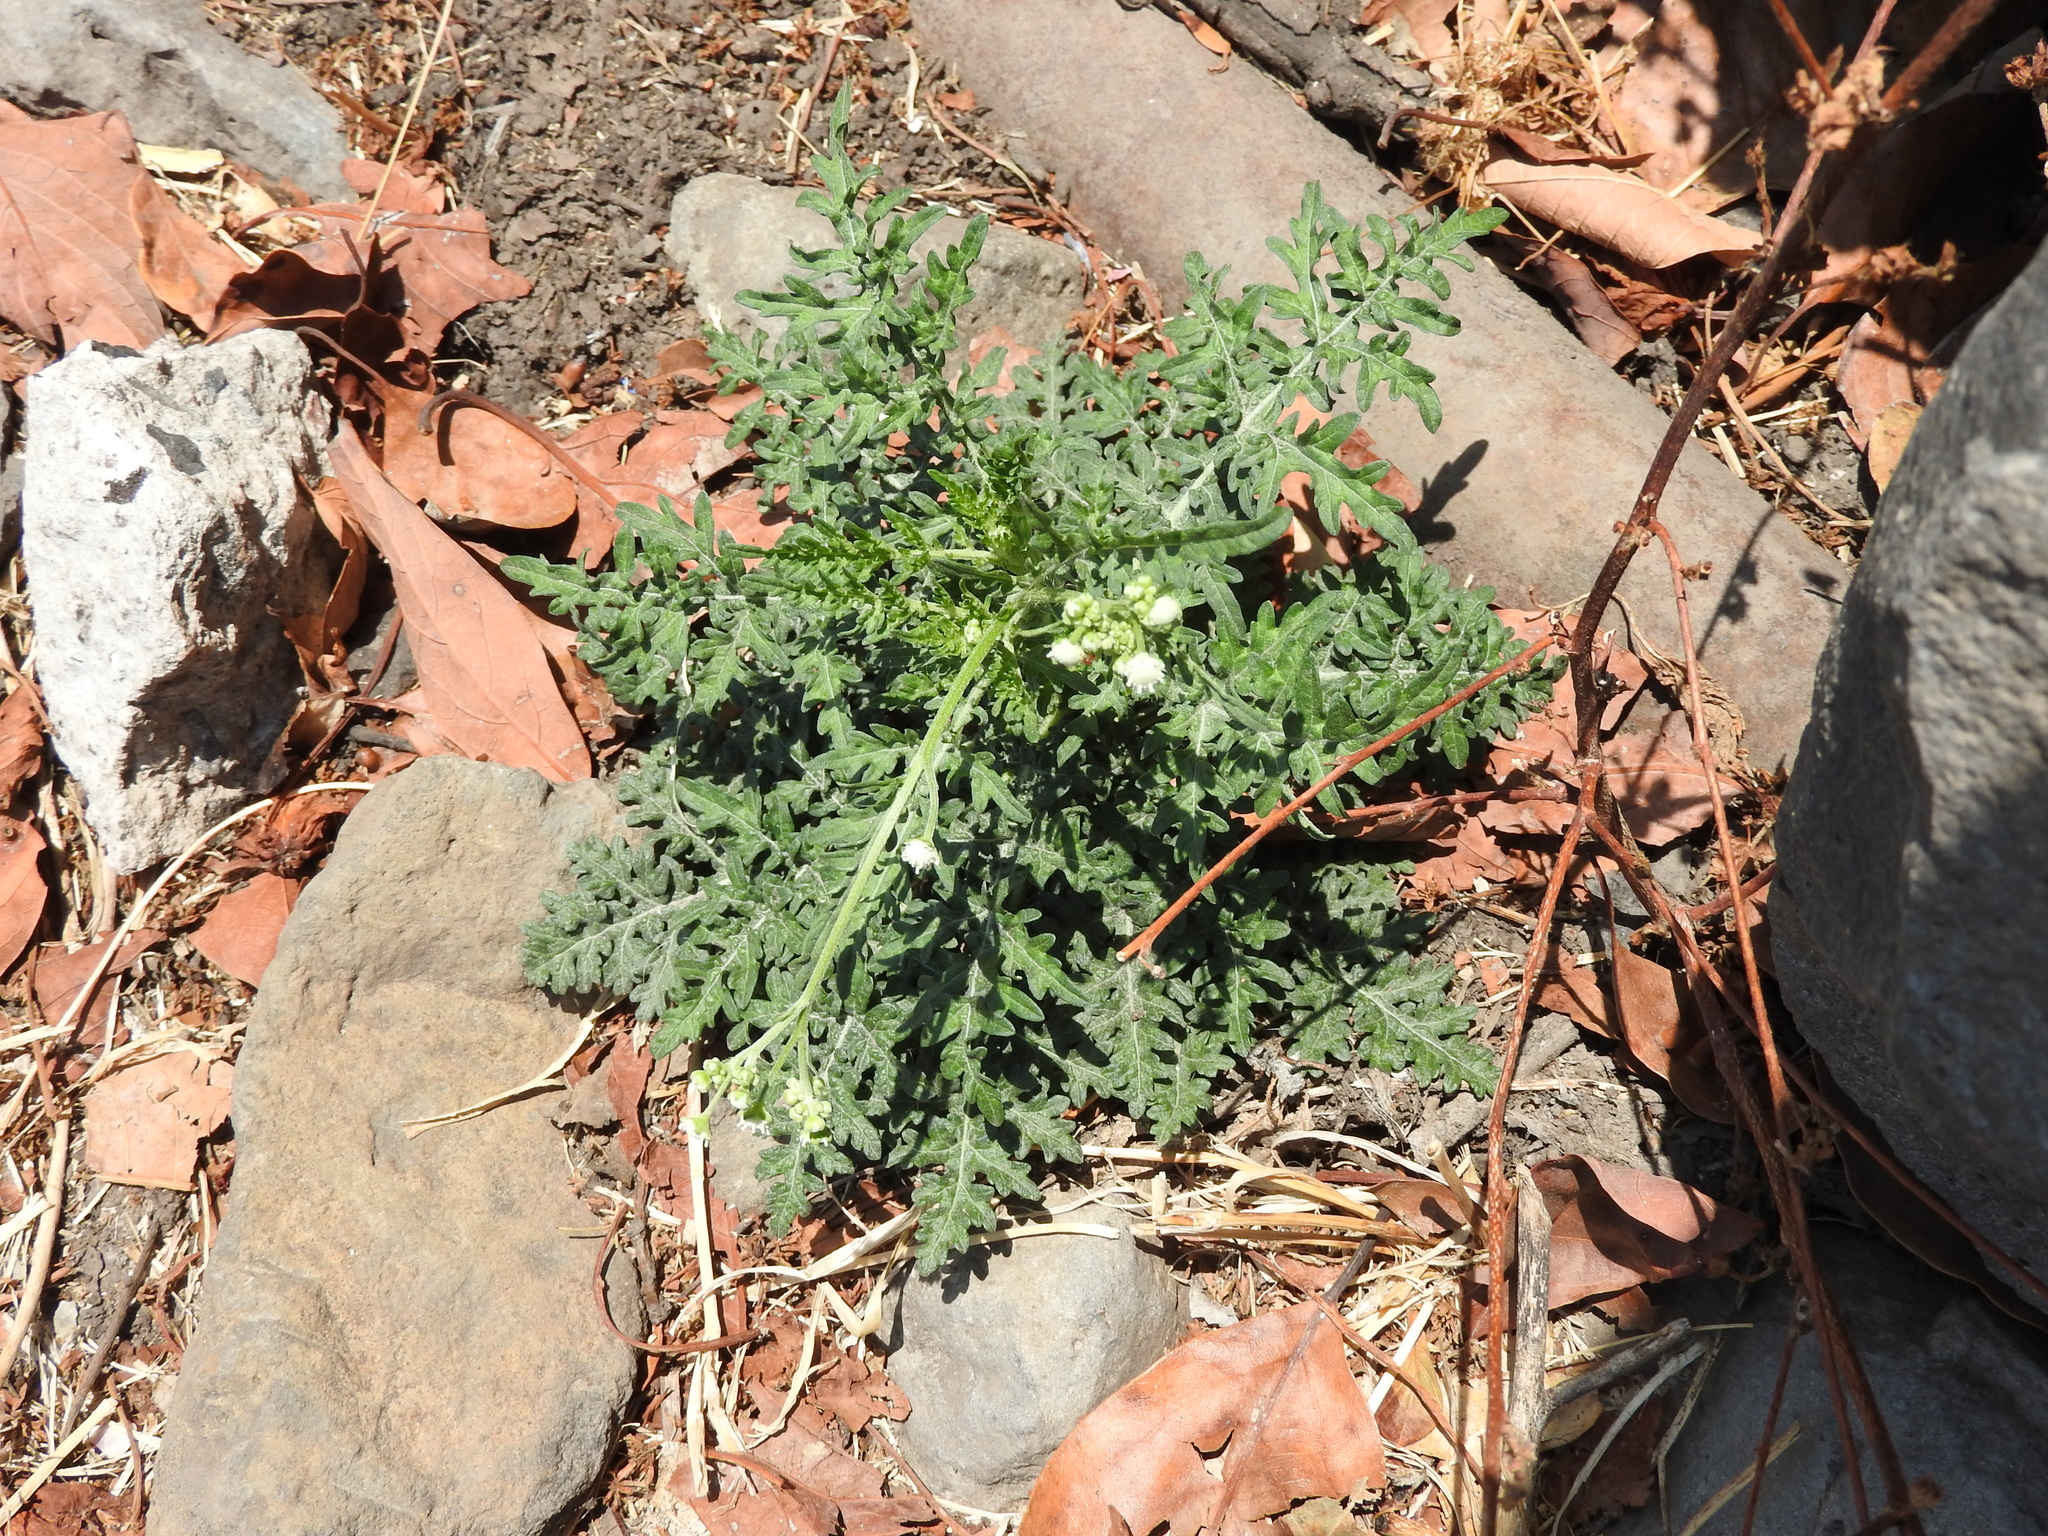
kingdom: Plantae
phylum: Tracheophyta
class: Magnoliopsida
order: Asterales
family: Asteraceae
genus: Parthenium
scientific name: Parthenium bipinnatifidum
